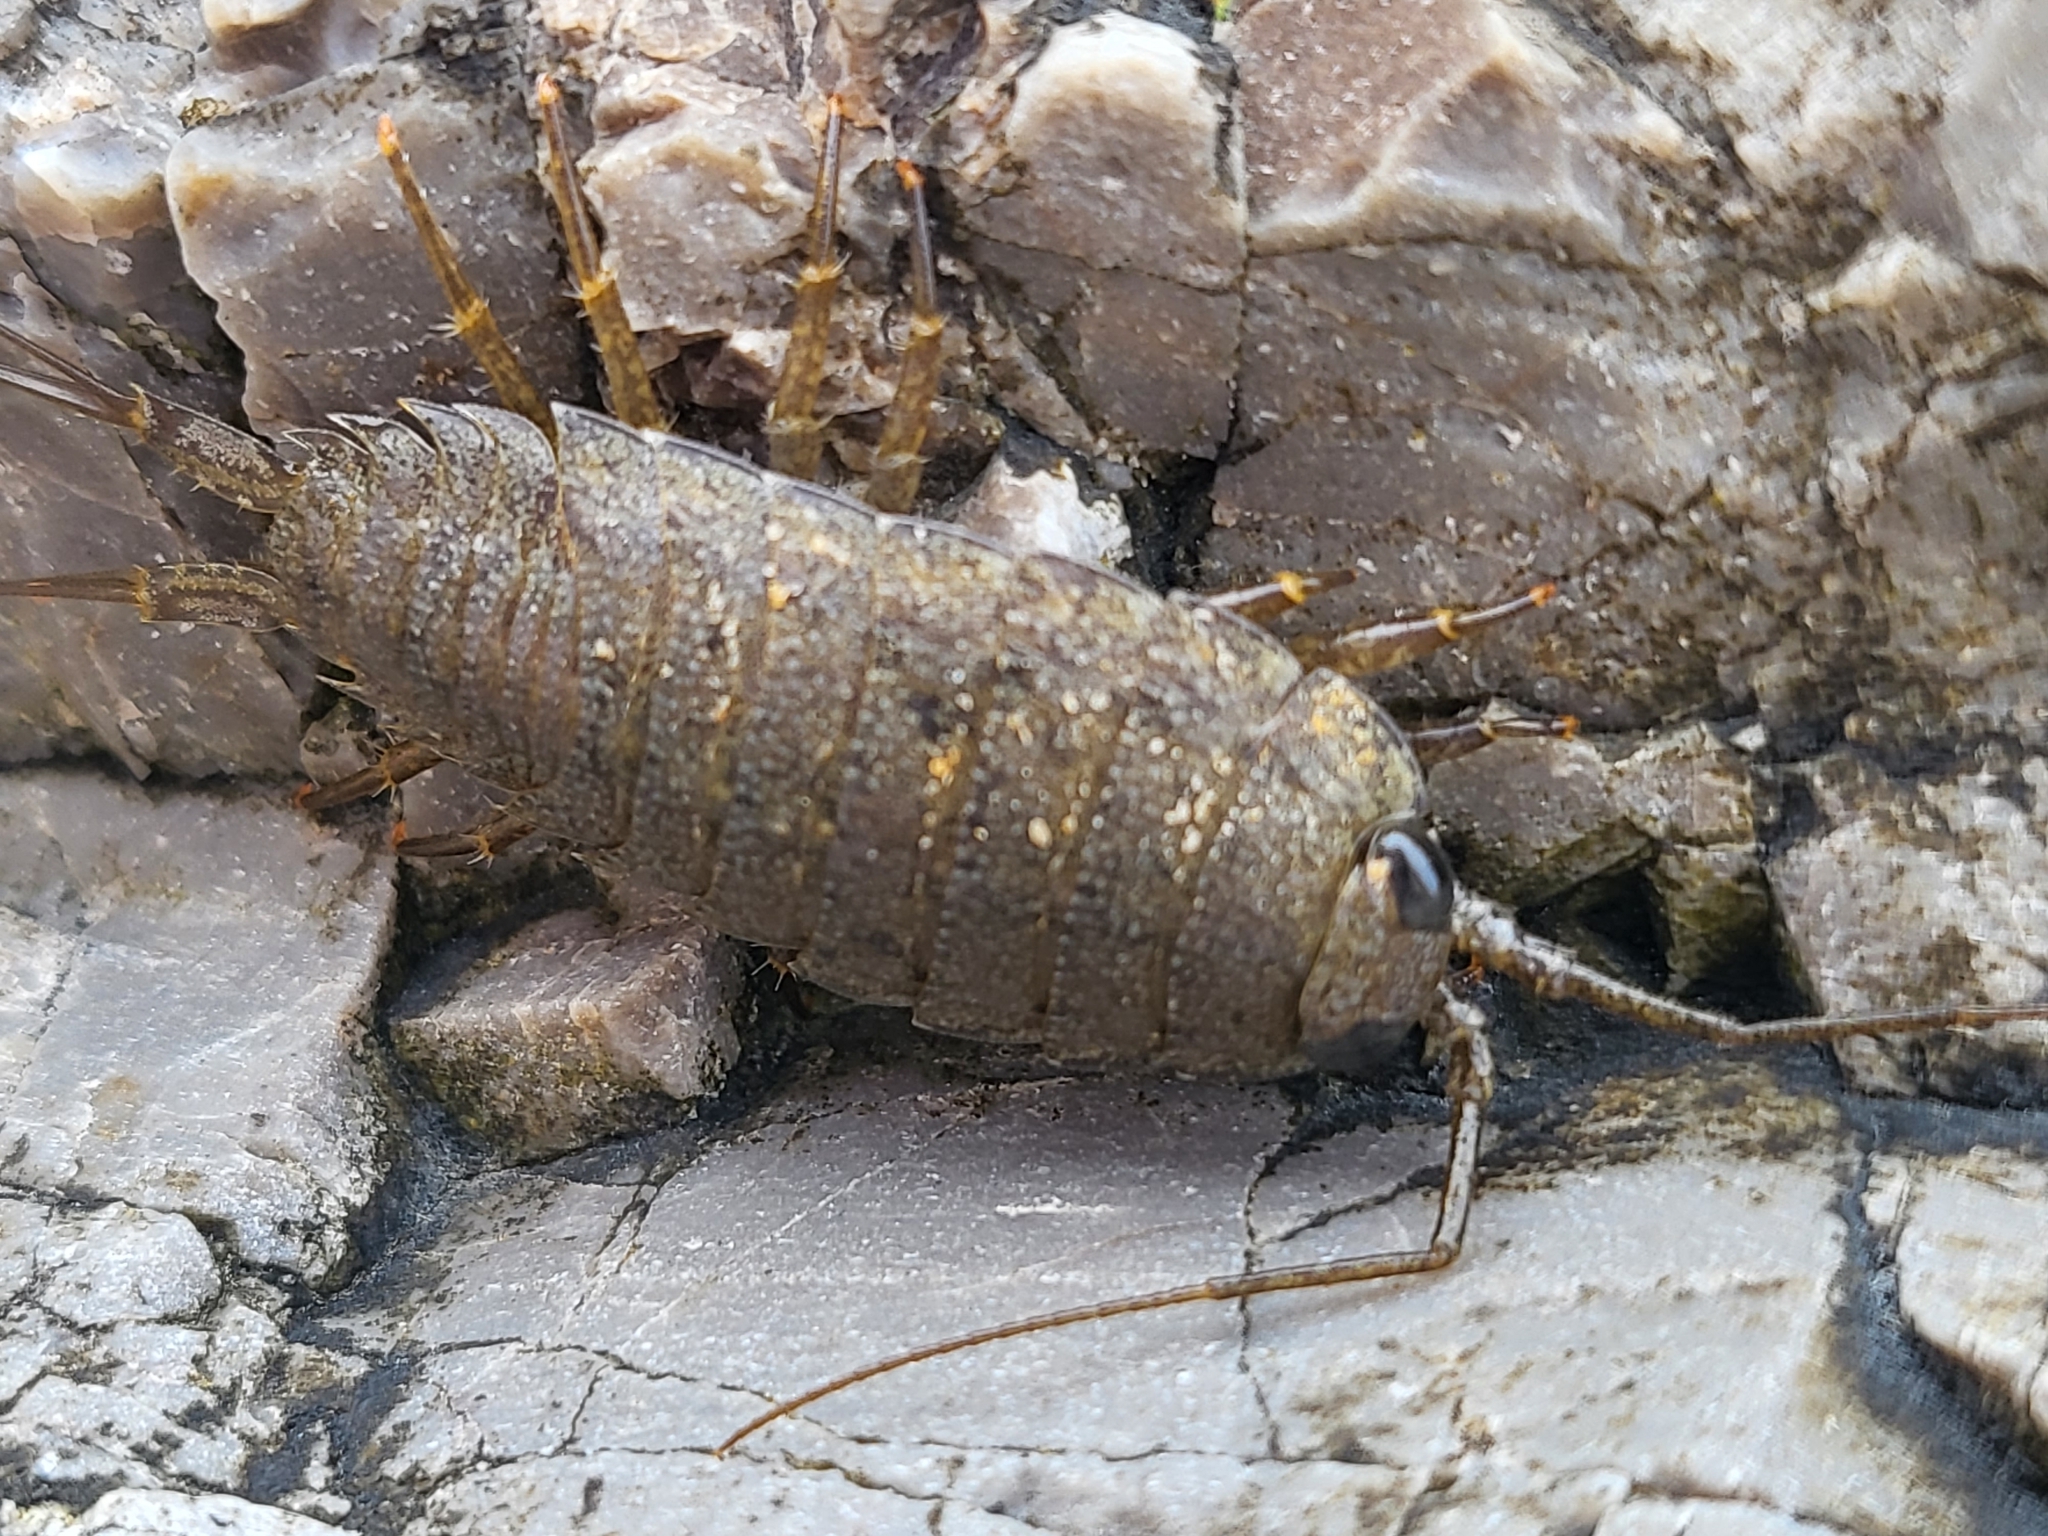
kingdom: Animalia
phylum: Arthropoda
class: Malacostraca
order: Isopoda
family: Ligiidae
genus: Ligia
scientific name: Ligia occidentalis
